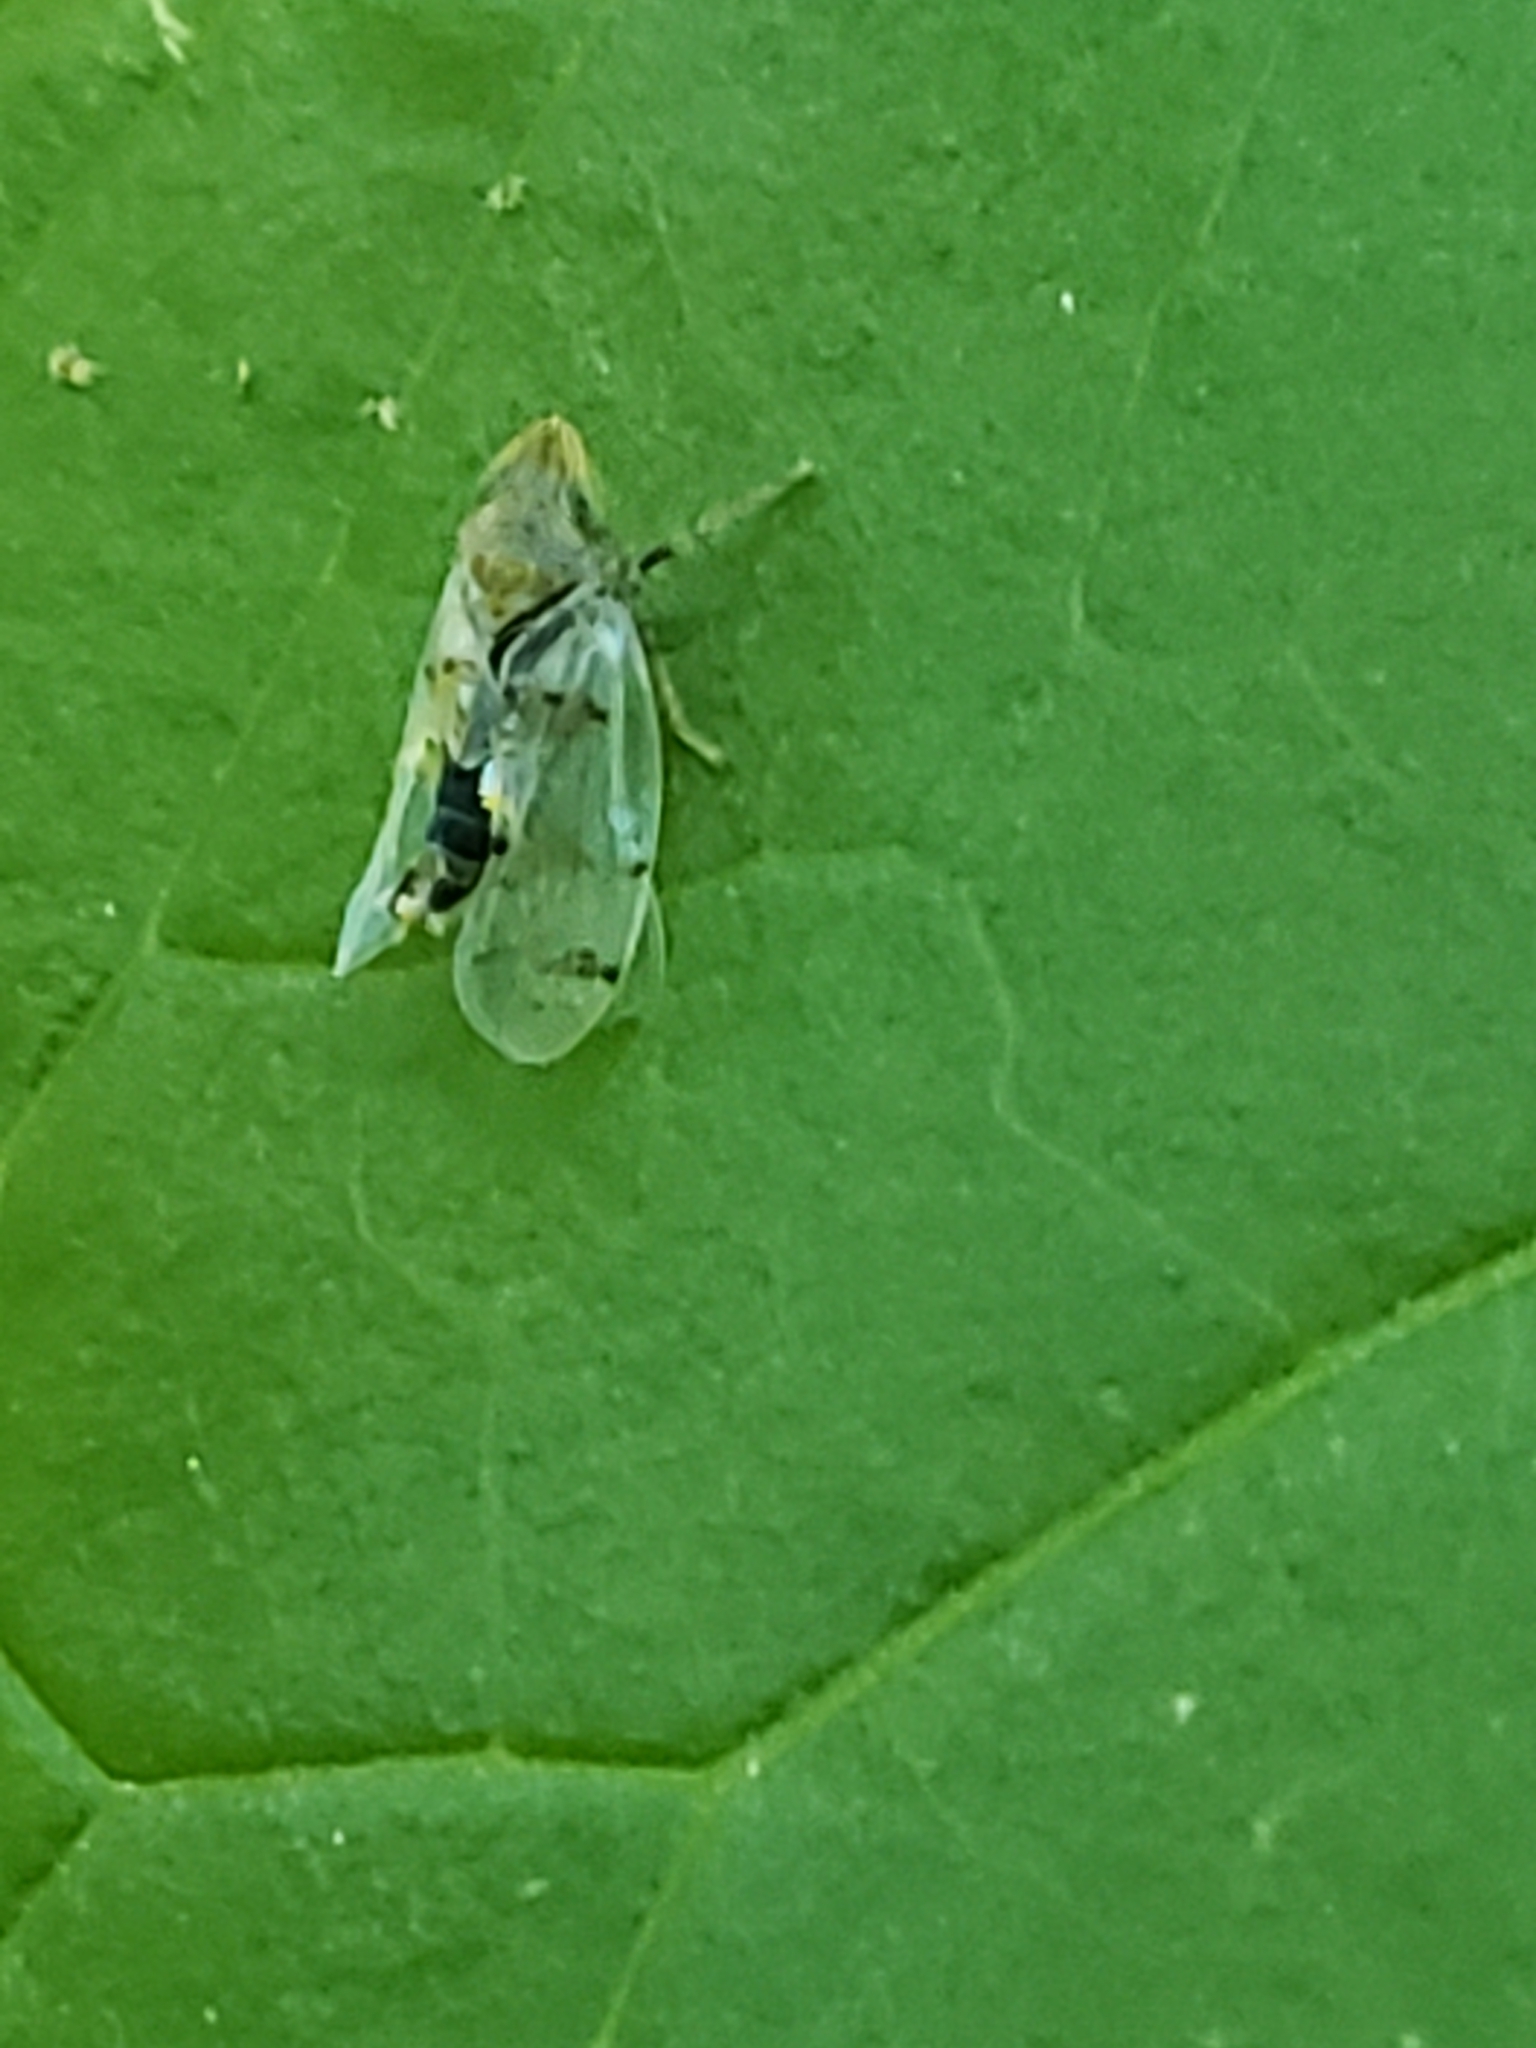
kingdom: Animalia
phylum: Arthropoda
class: Insecta
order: Hemiptera
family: Cicadellidae
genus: Japananus
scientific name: Japananus hyalinus
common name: The japanese maple leafhopper
